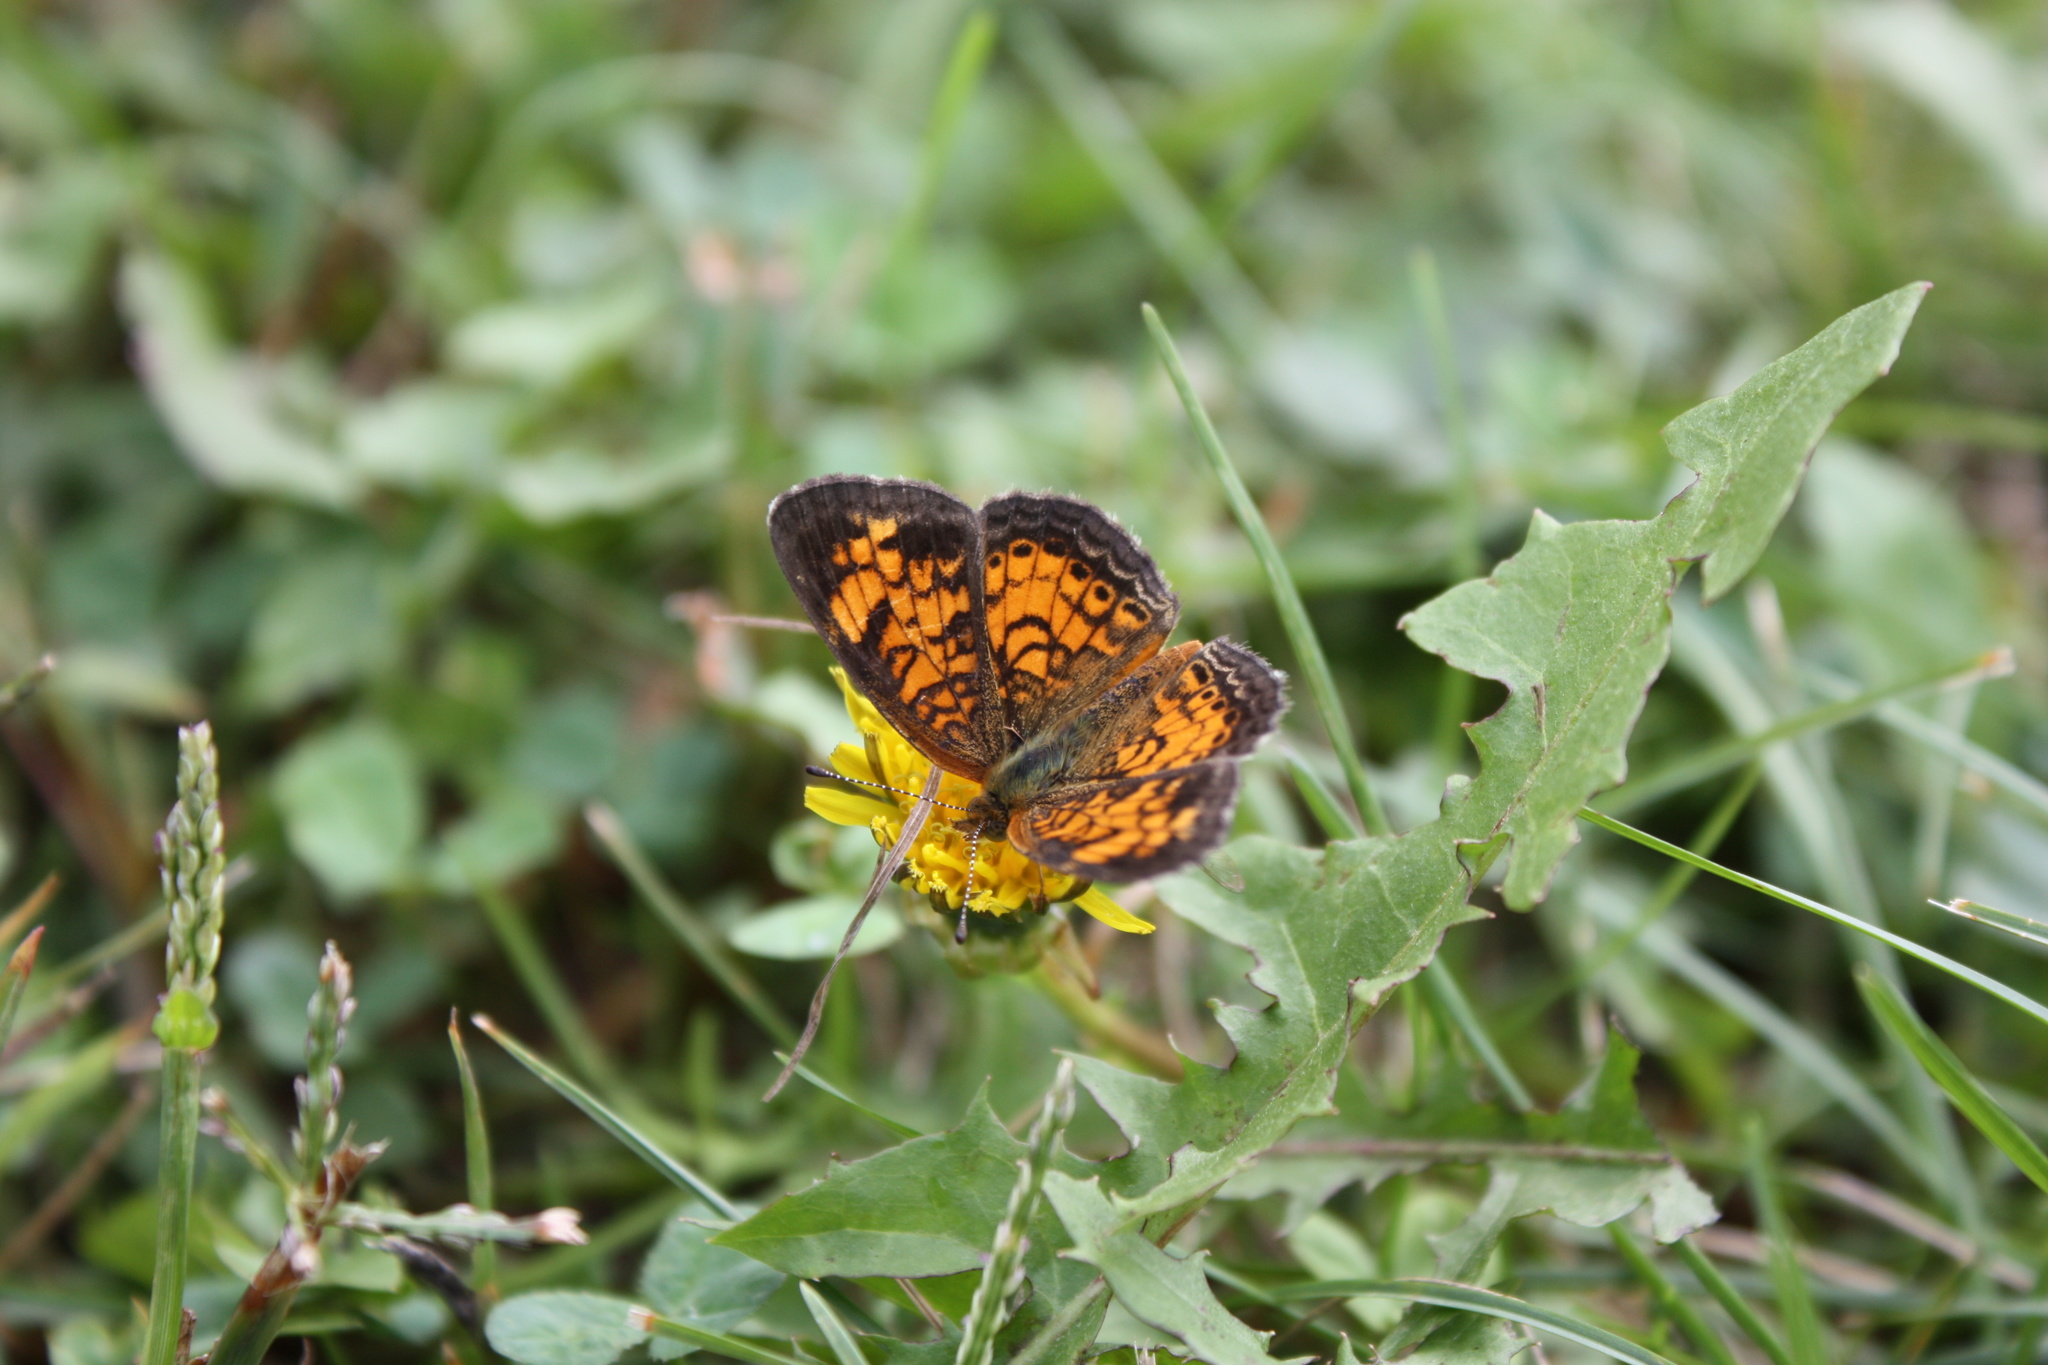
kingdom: Animalia
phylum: Arthropoda
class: Insecta
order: Lepidoptera
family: Nymphalidae
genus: Phyciodes
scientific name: Phyciodes tharos
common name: Pearl crescent
